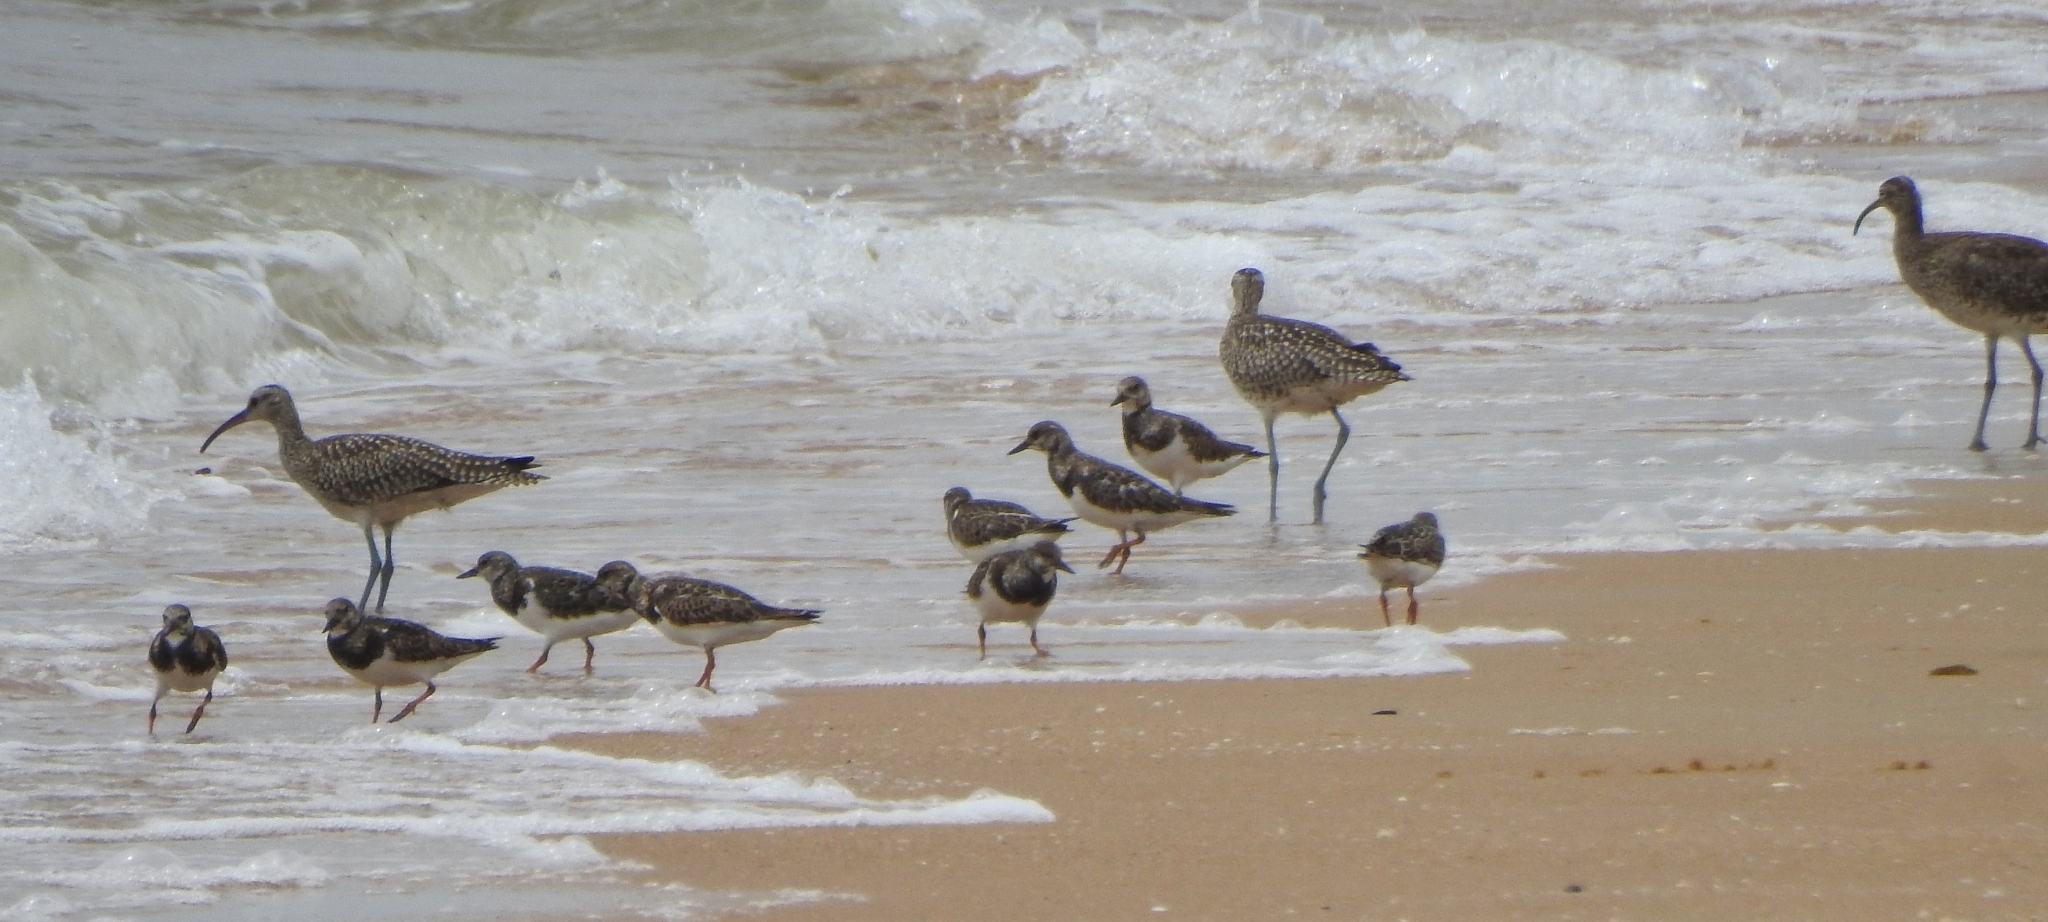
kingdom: Animalia
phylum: Chordata
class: Aves
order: Charadriiformes
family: Scolopacidae
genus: Arenaria
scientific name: Arenaria interpres
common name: Ruddy turnstone
